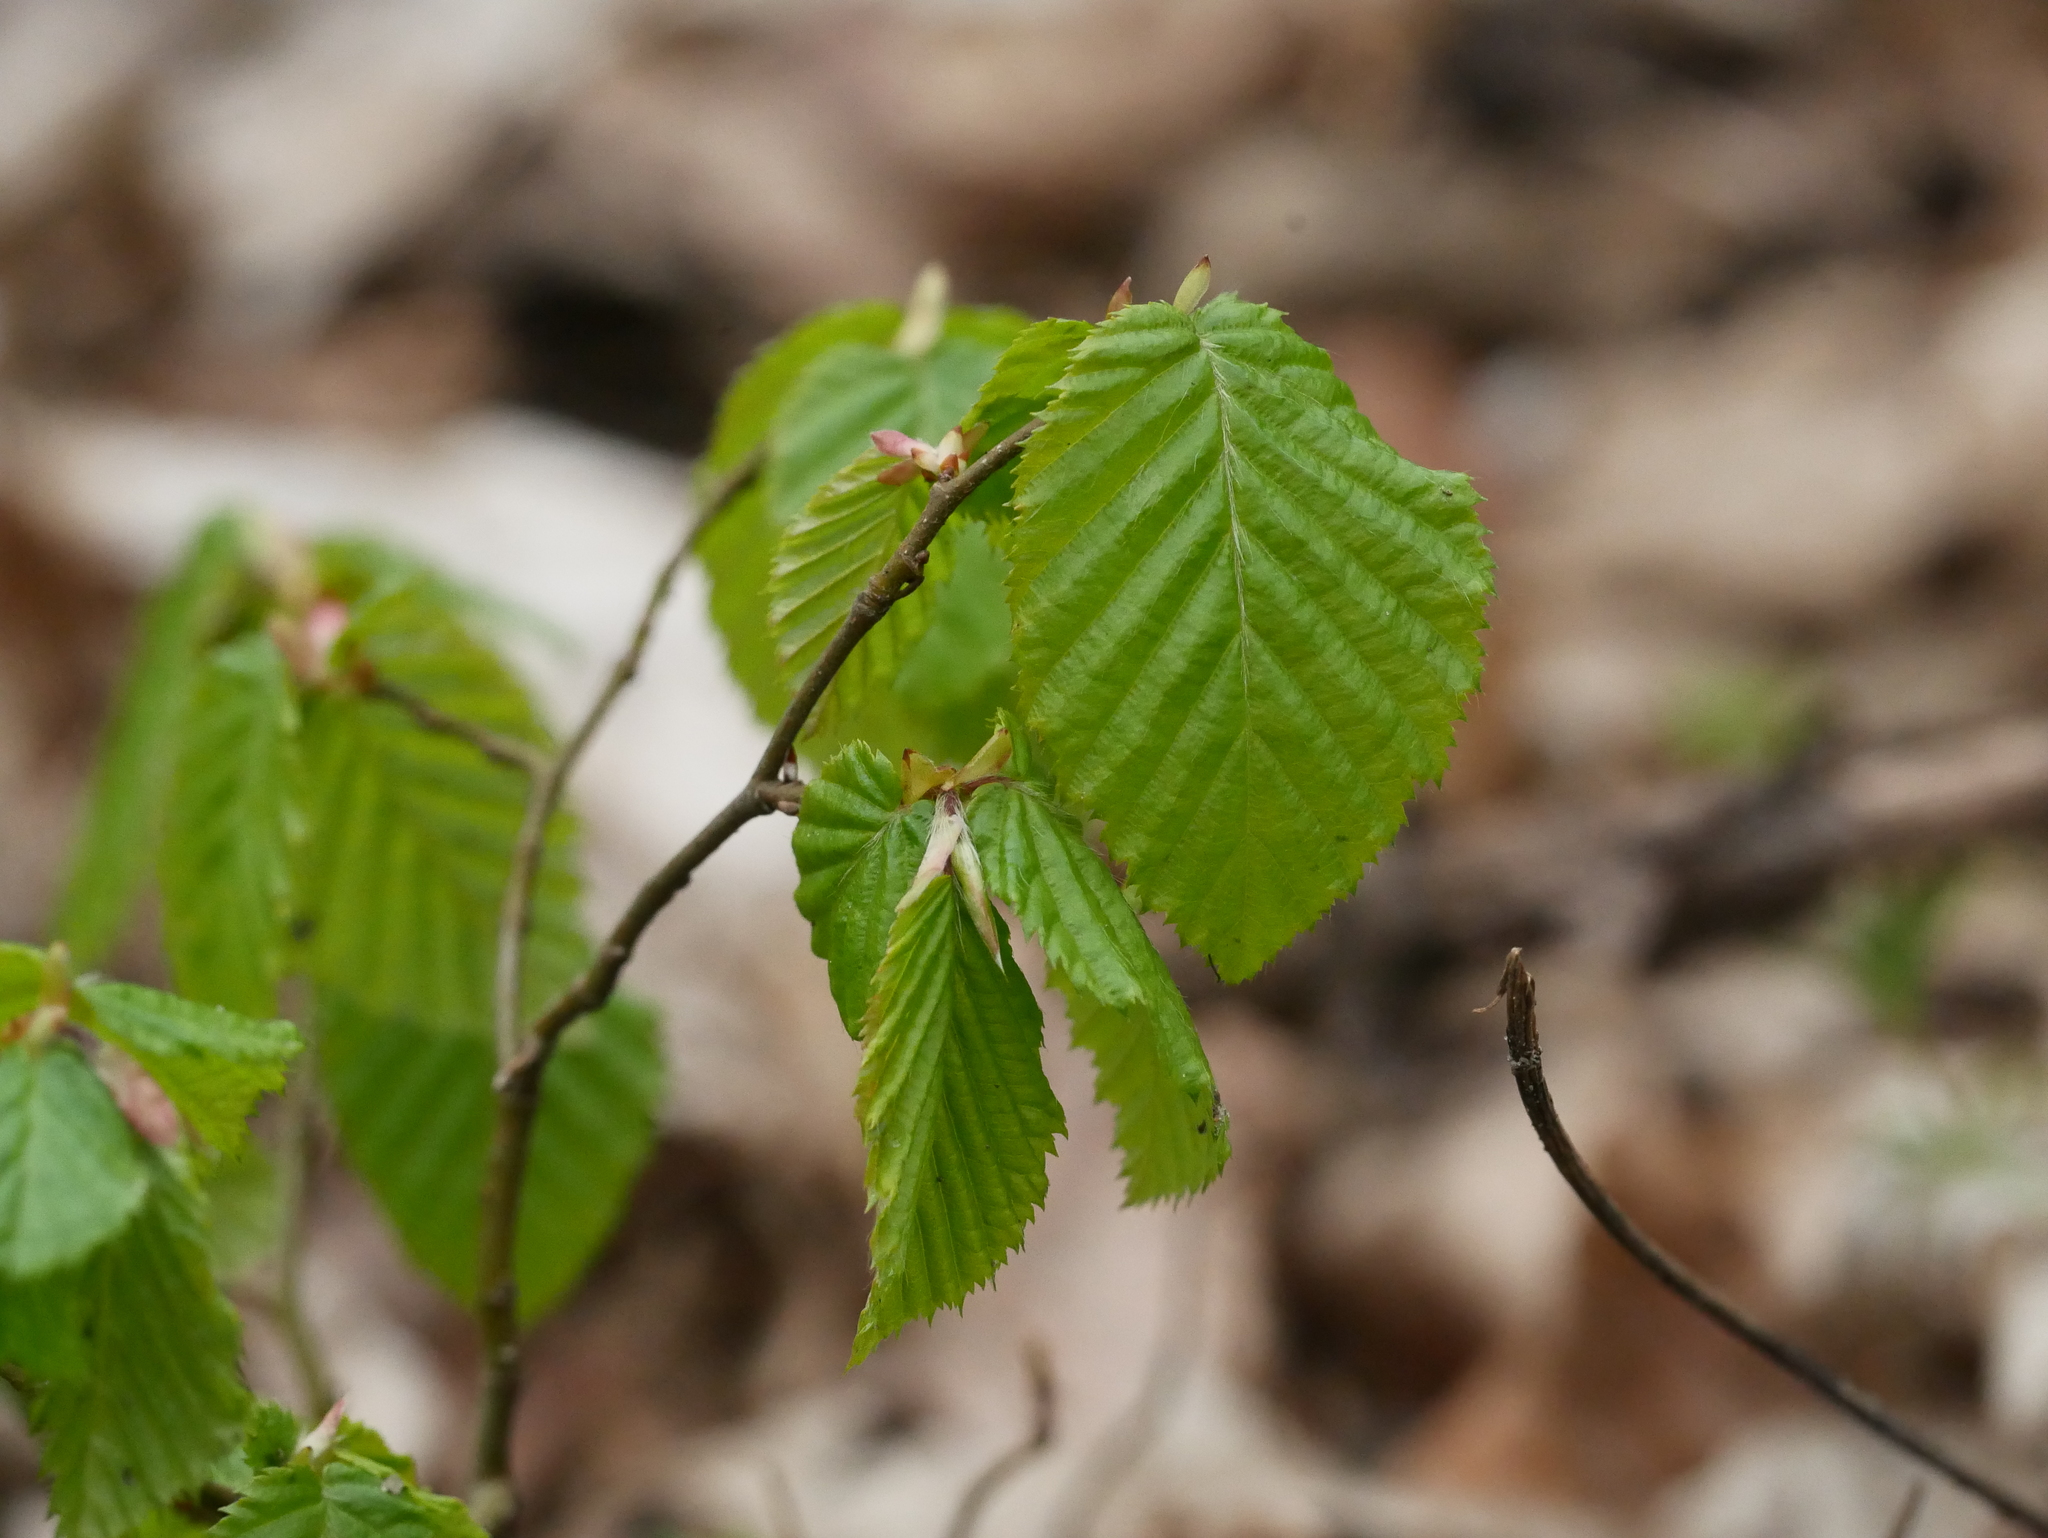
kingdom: Plantae
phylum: Tracheophyta
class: Magnoliopsida
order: Fagales
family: Betulaceae
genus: Carpinus
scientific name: Carpinus betulus
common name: Hornbeam
